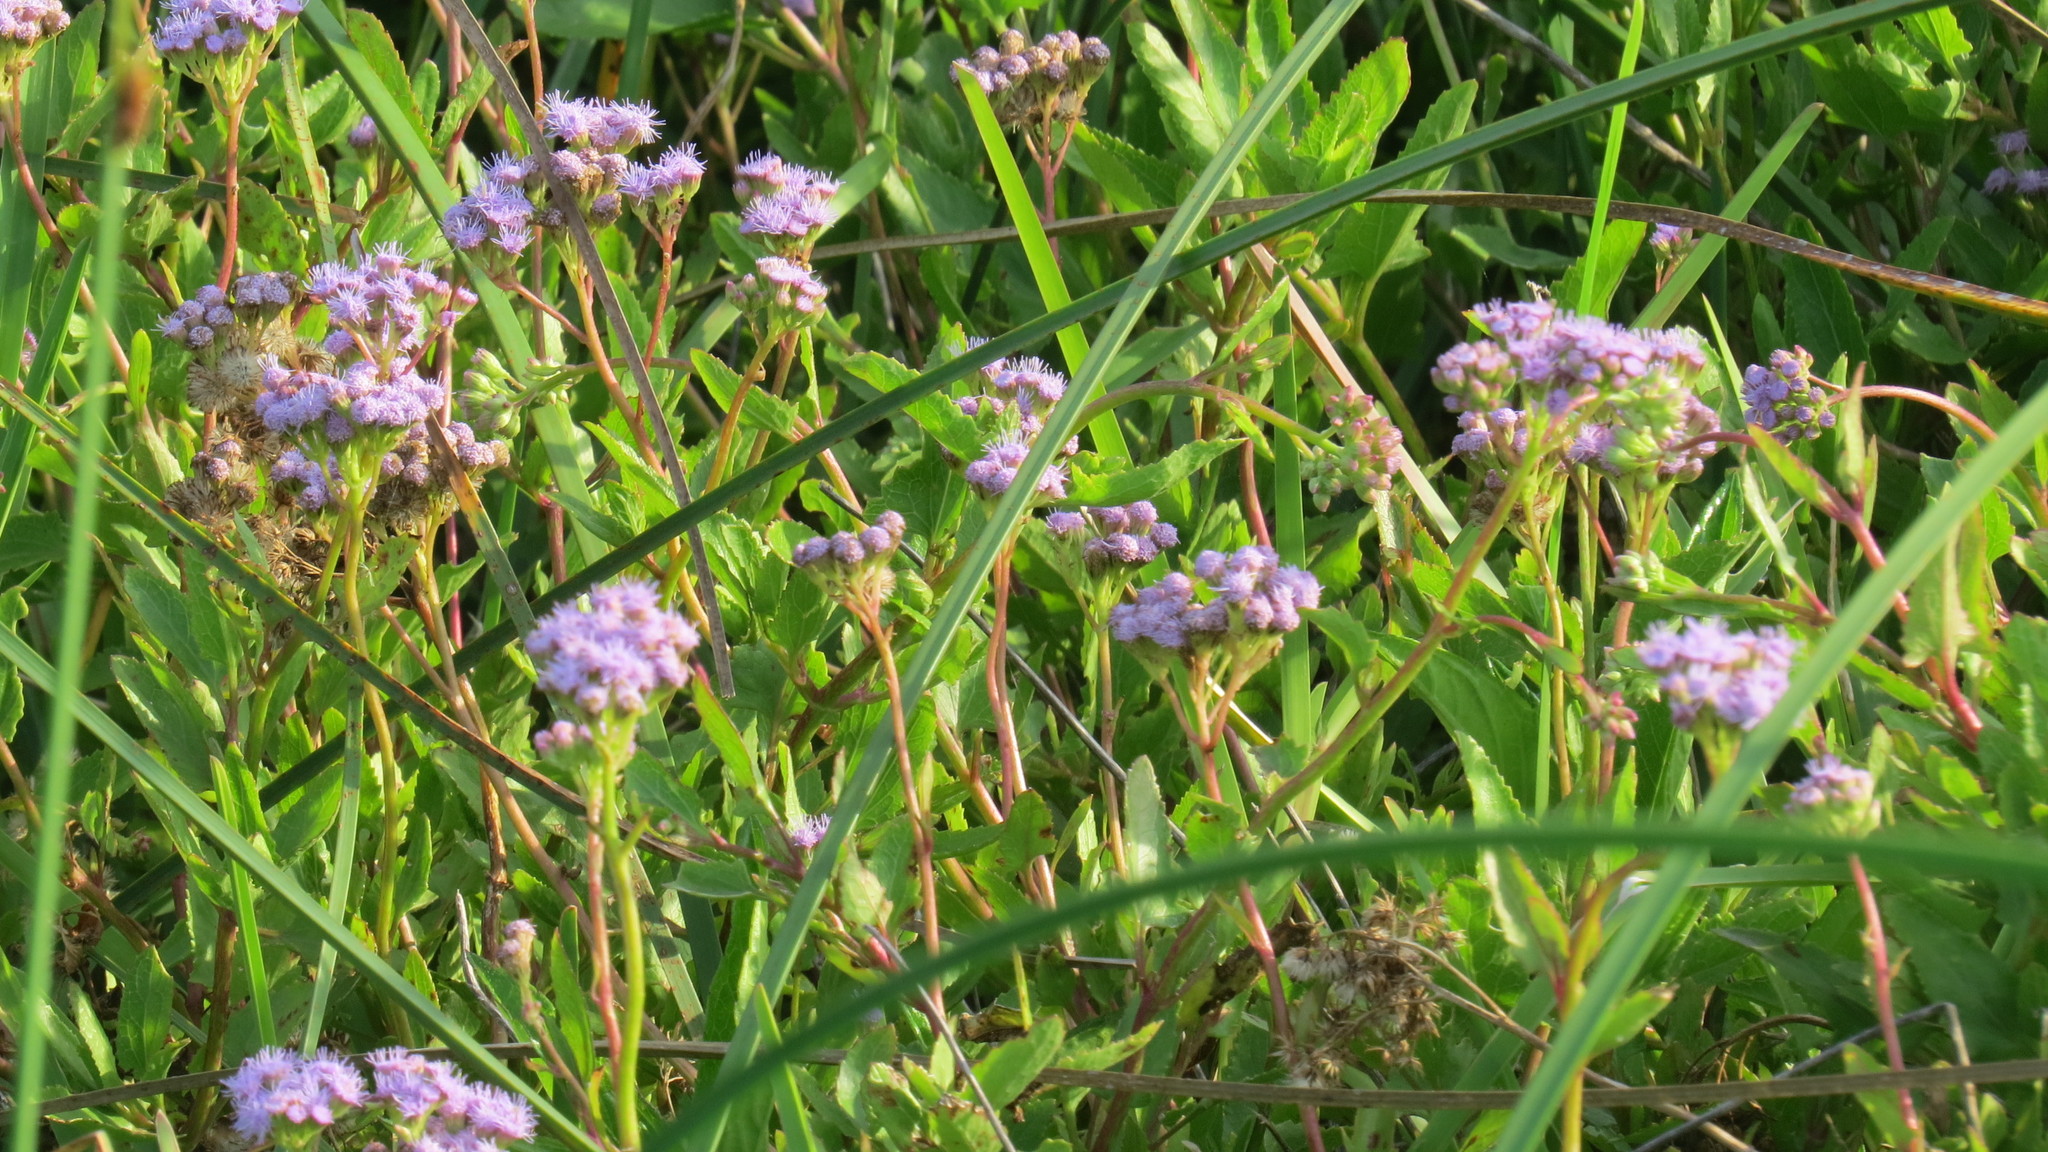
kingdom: Plantae
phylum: Tracheophyta
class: Magnoliopsida
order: Asterales
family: Asteraceae
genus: Conoclinium
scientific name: Conoclinium betonicifolium
